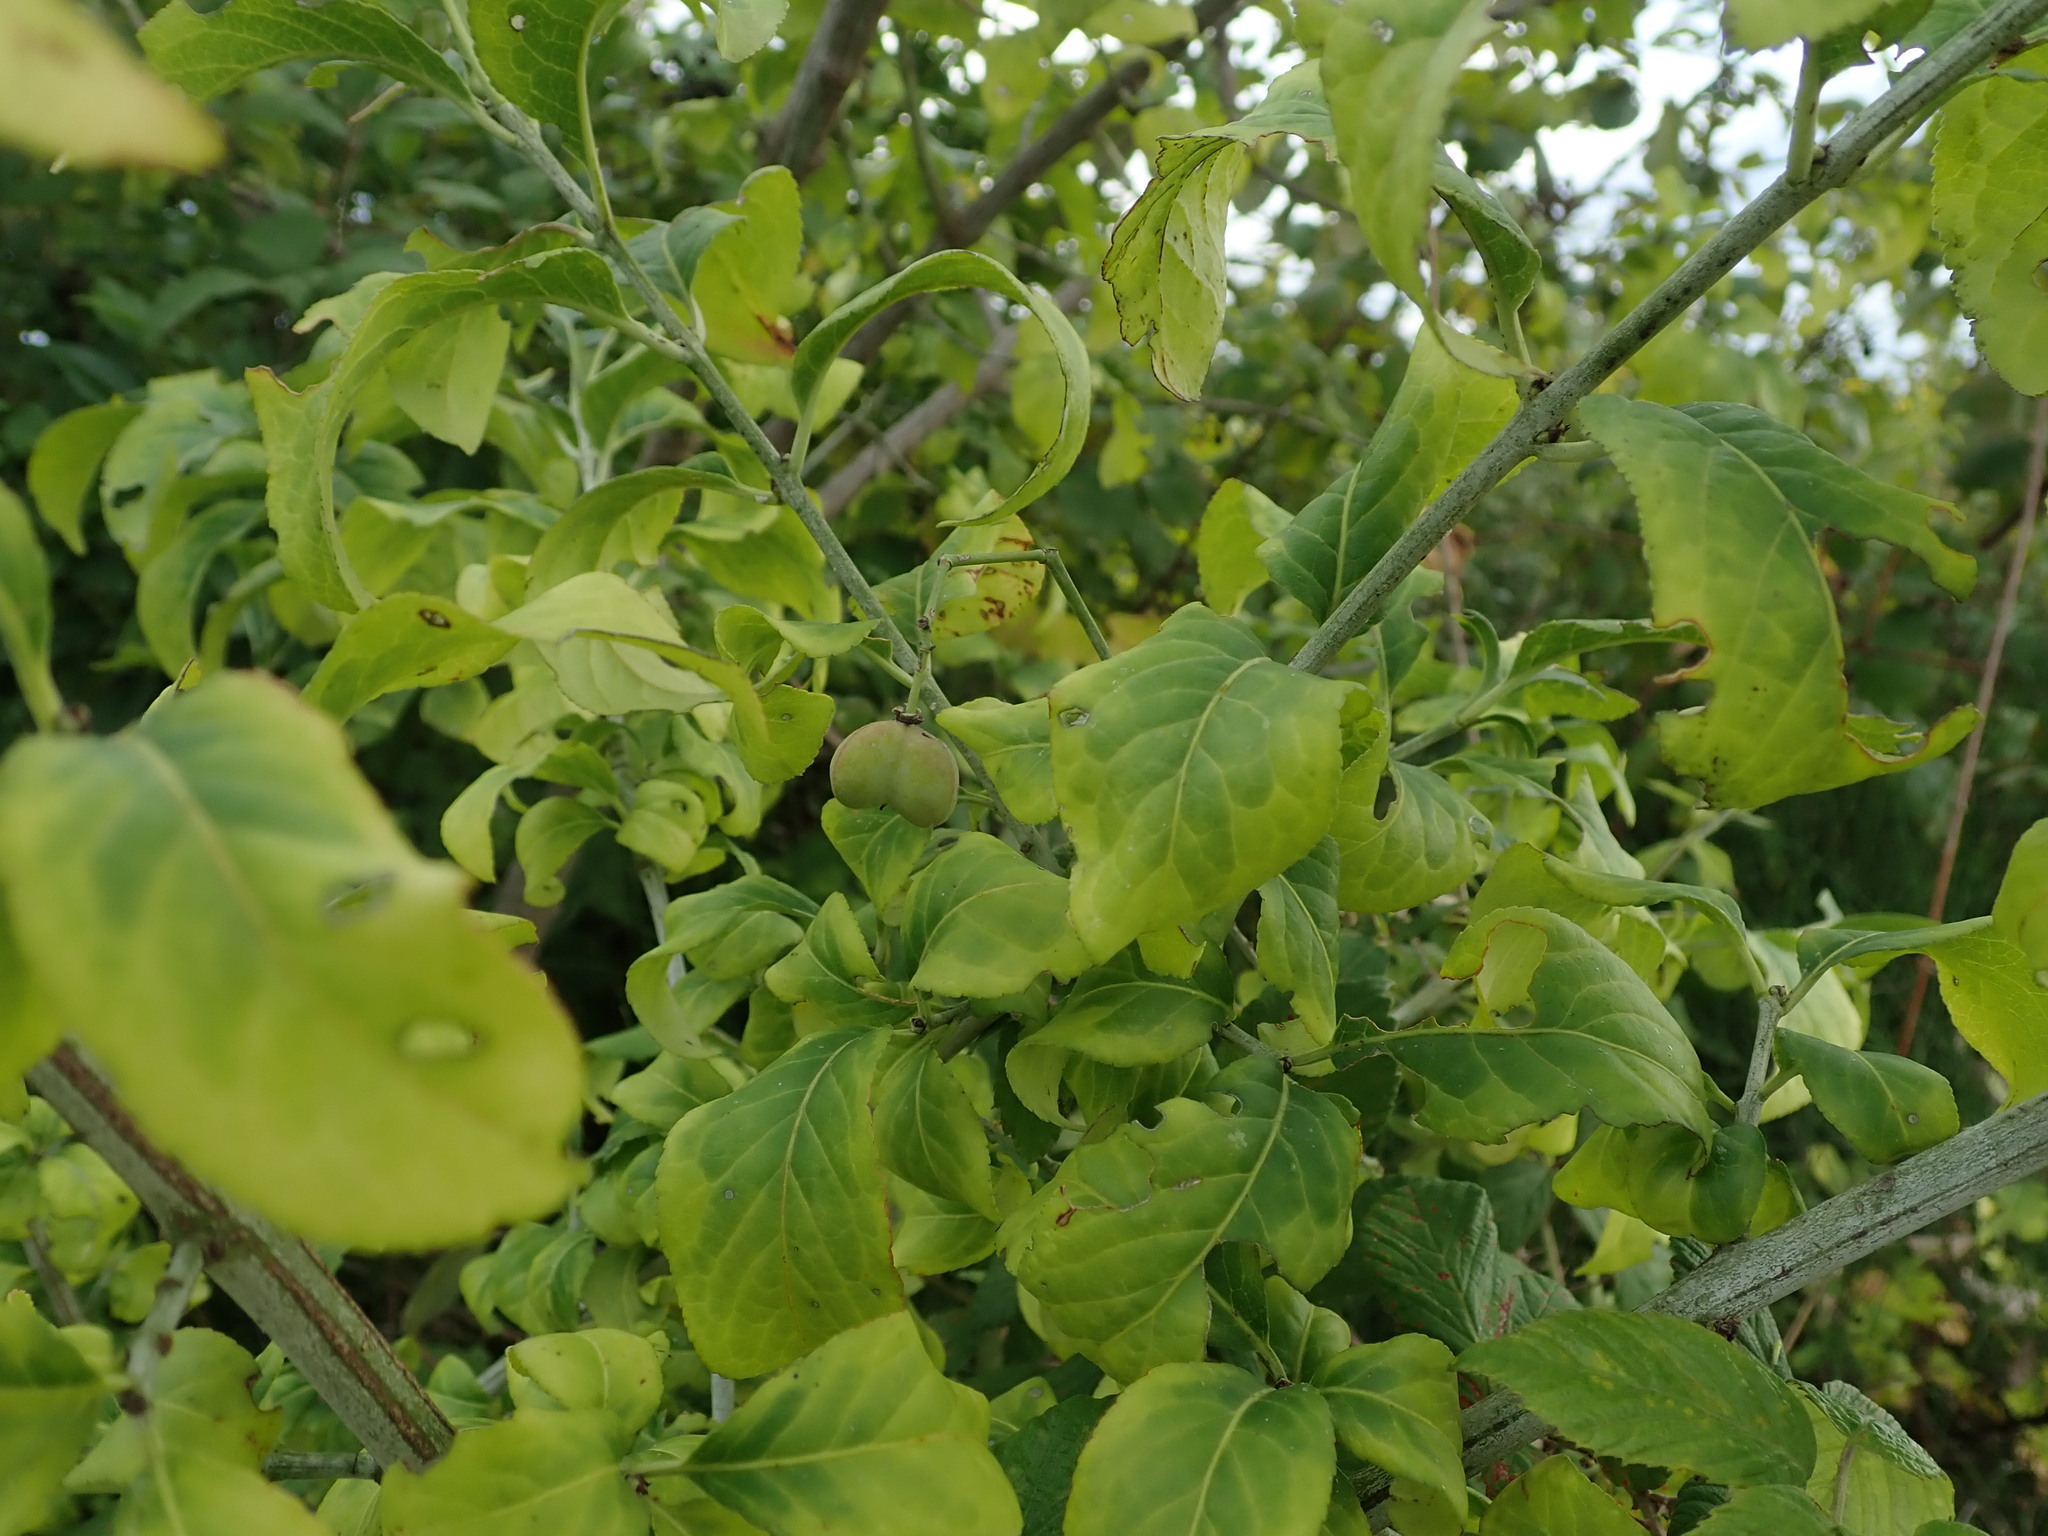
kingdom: Plantae
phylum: Tracheophyta
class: Magnoliopsida
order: Celastrales
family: Celastraceae
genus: Euonymus
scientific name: Euonymus europaeus
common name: Spindle
